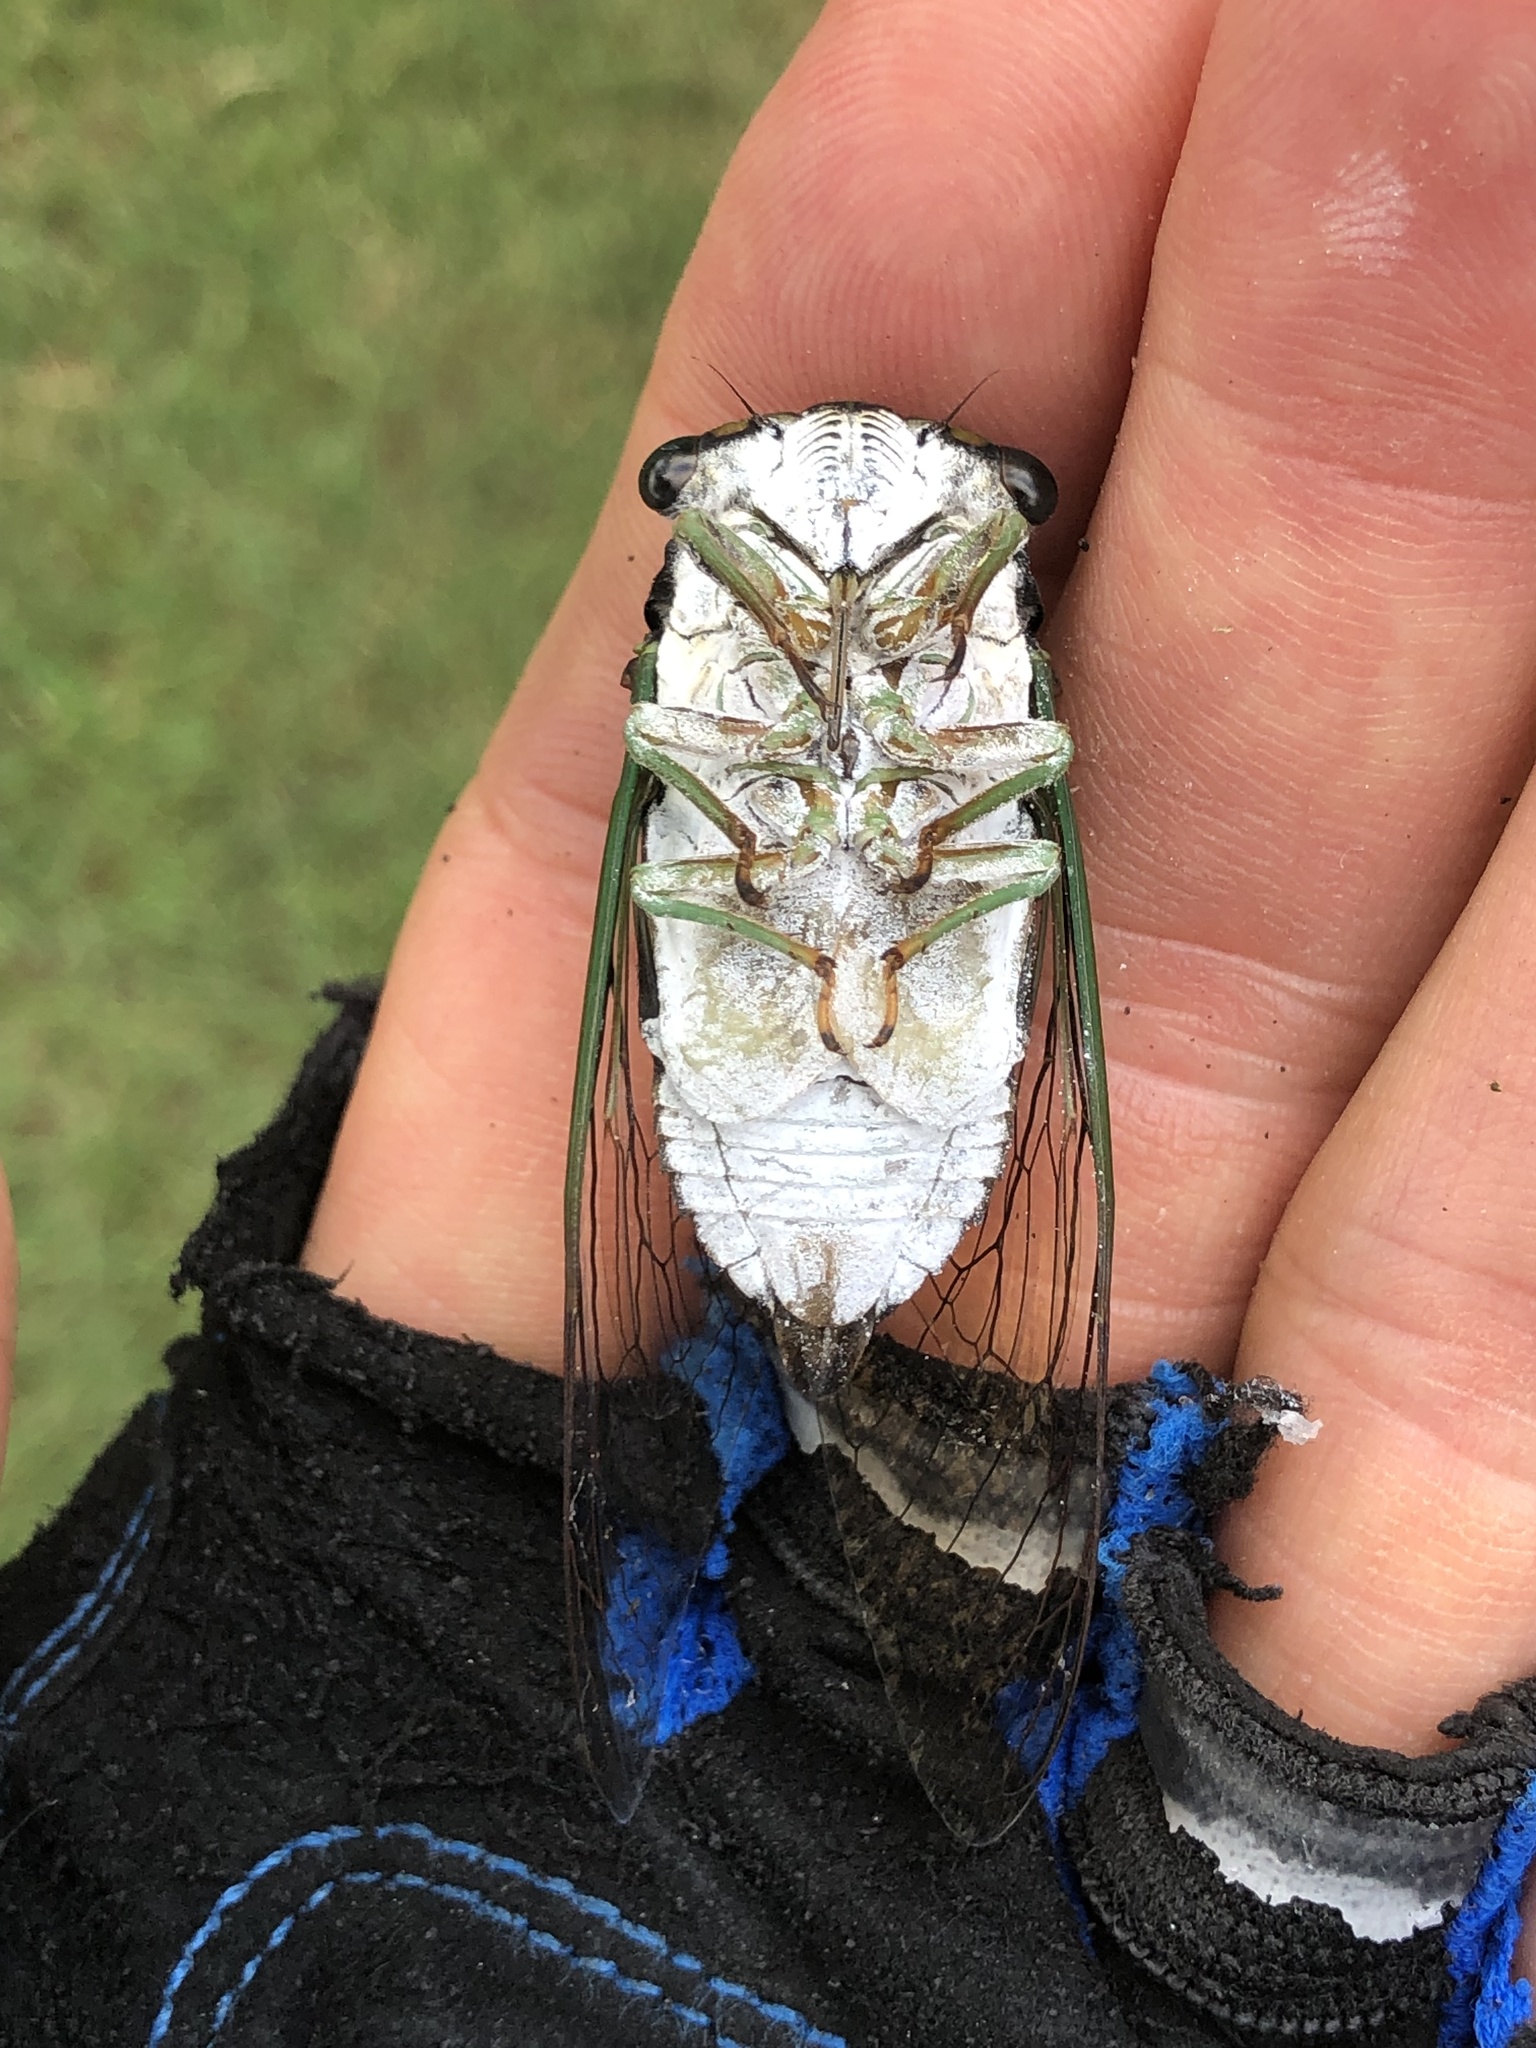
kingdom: Animalia
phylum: Arthropoda
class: Insecta
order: Hemiptera
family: Cicadidae
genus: Neotibicen
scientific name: Neotibicen tibicen
